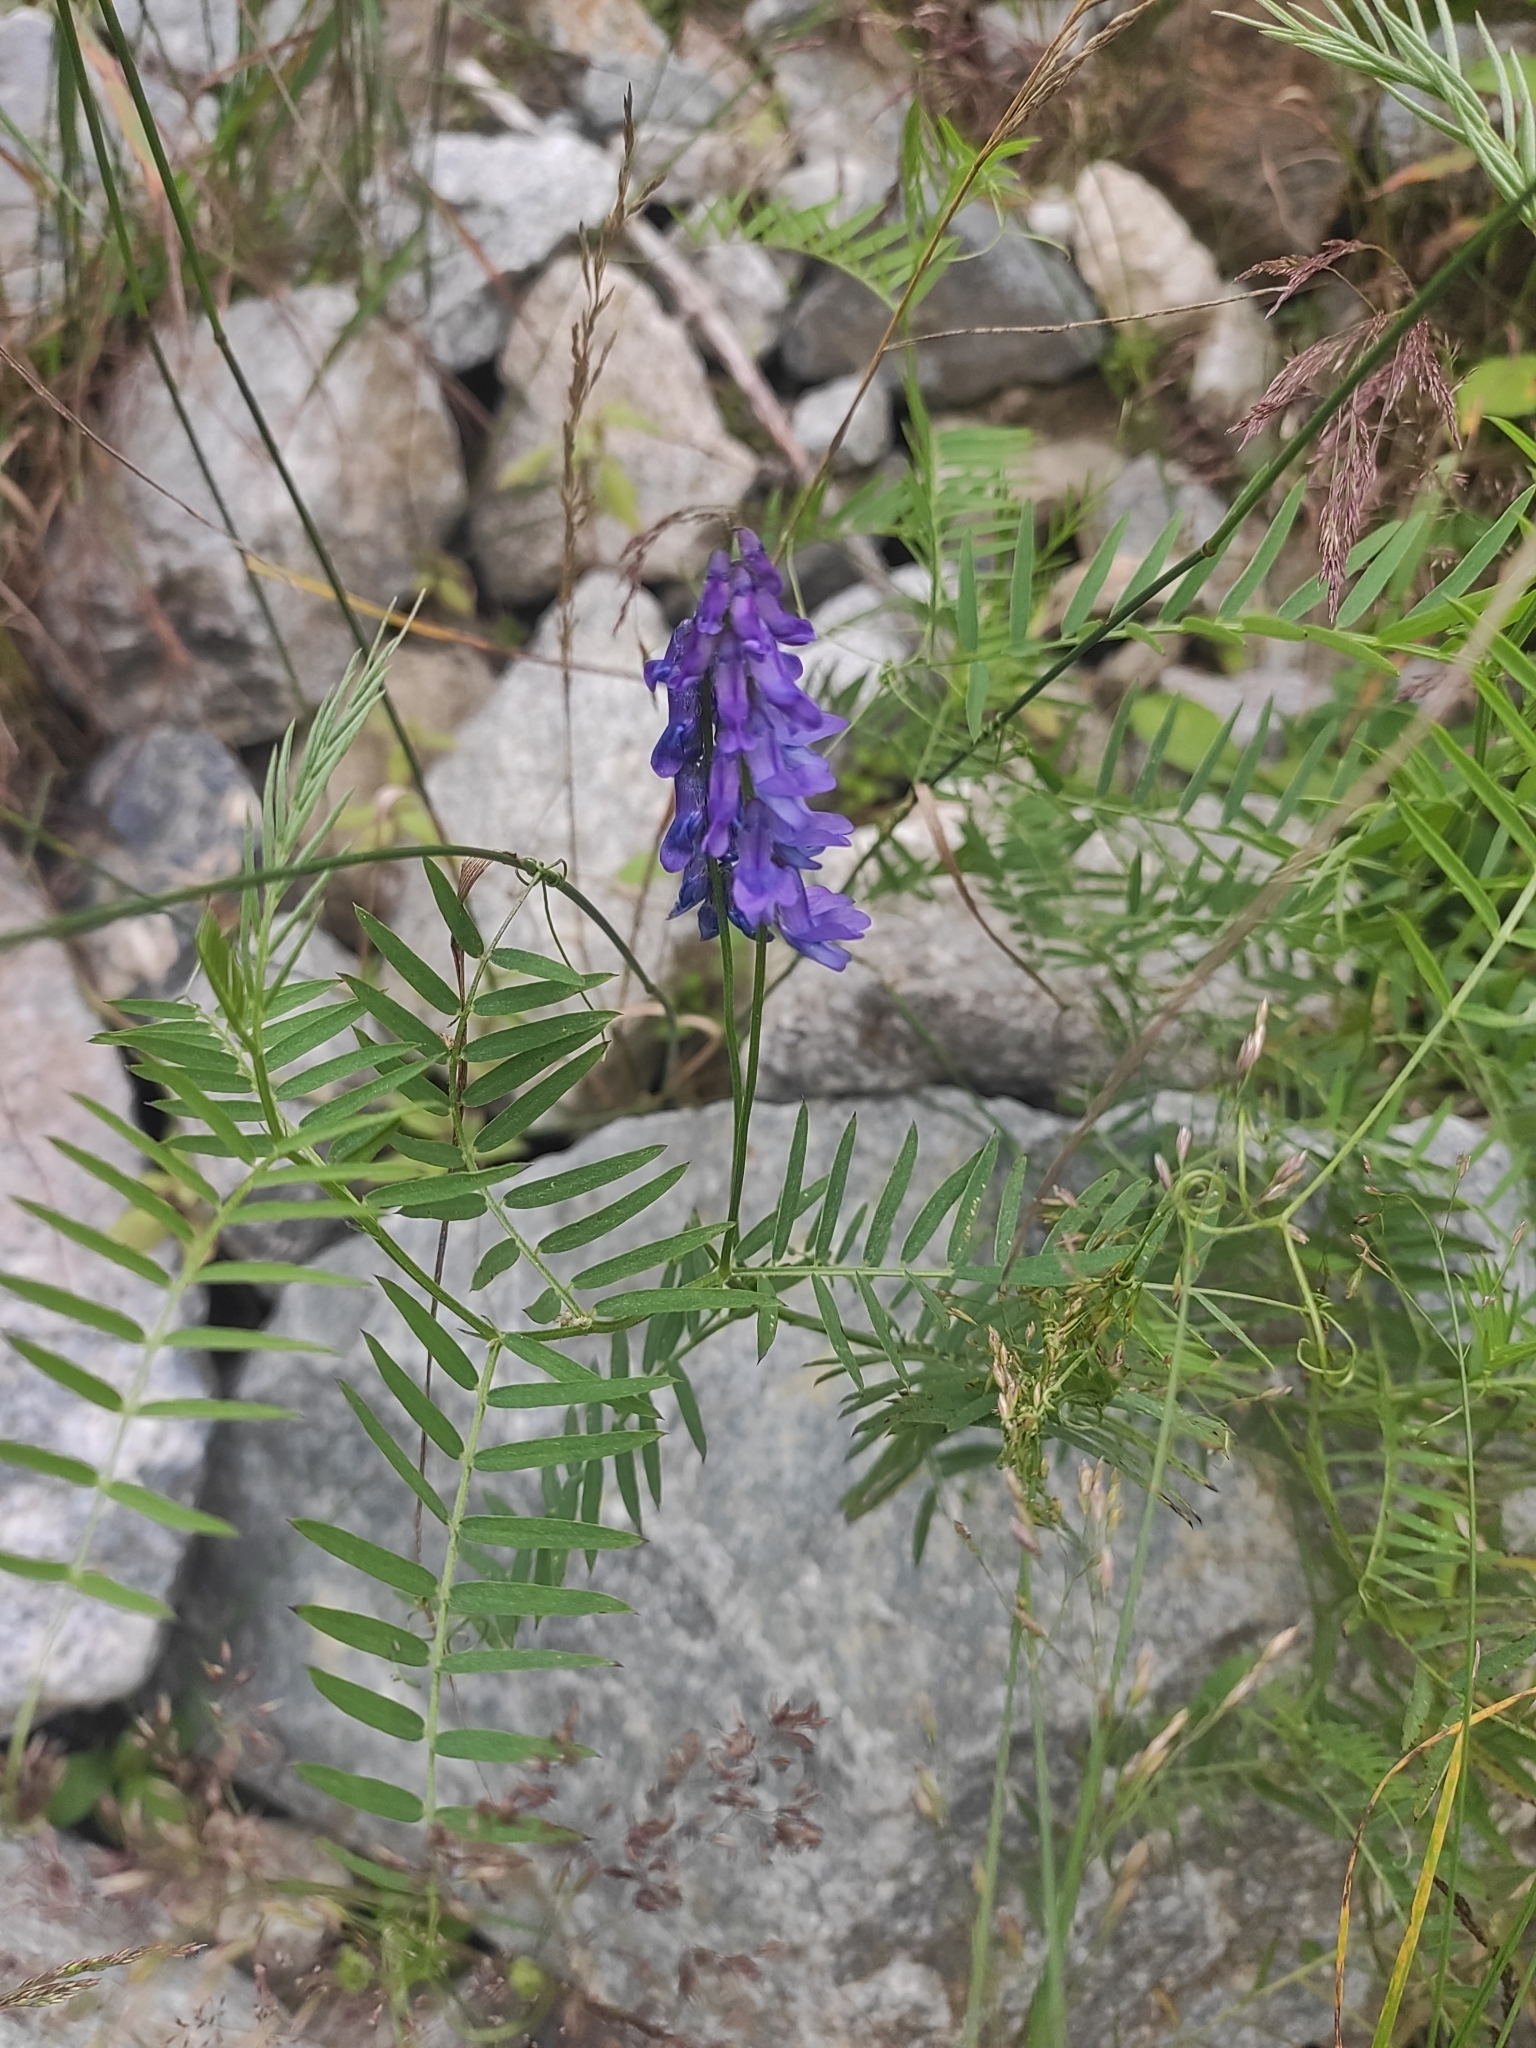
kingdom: Plantae
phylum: Tracheophyta
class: Magnoliopsida
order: Fabales
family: Fabaceae
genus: Vicia
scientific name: Vicia cracca
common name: Bird vetch
